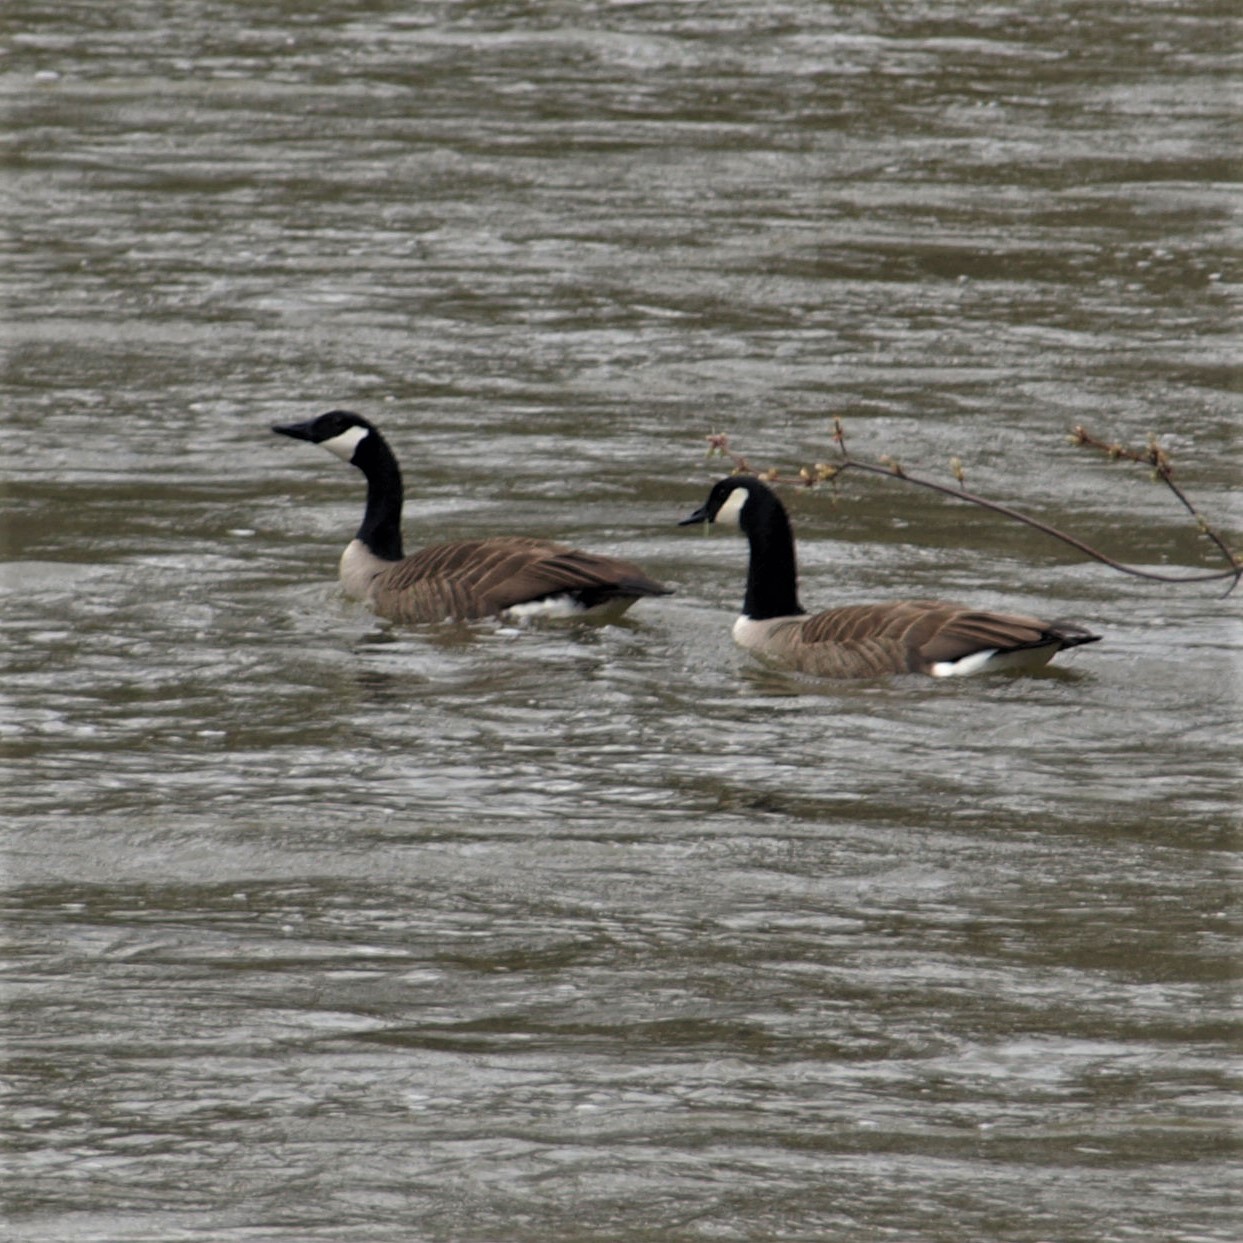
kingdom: Animalia
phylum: Chordata
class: Aves
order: Anseriformes
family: Anatidae
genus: Branta
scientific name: Branta canadensis
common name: Canada goose
